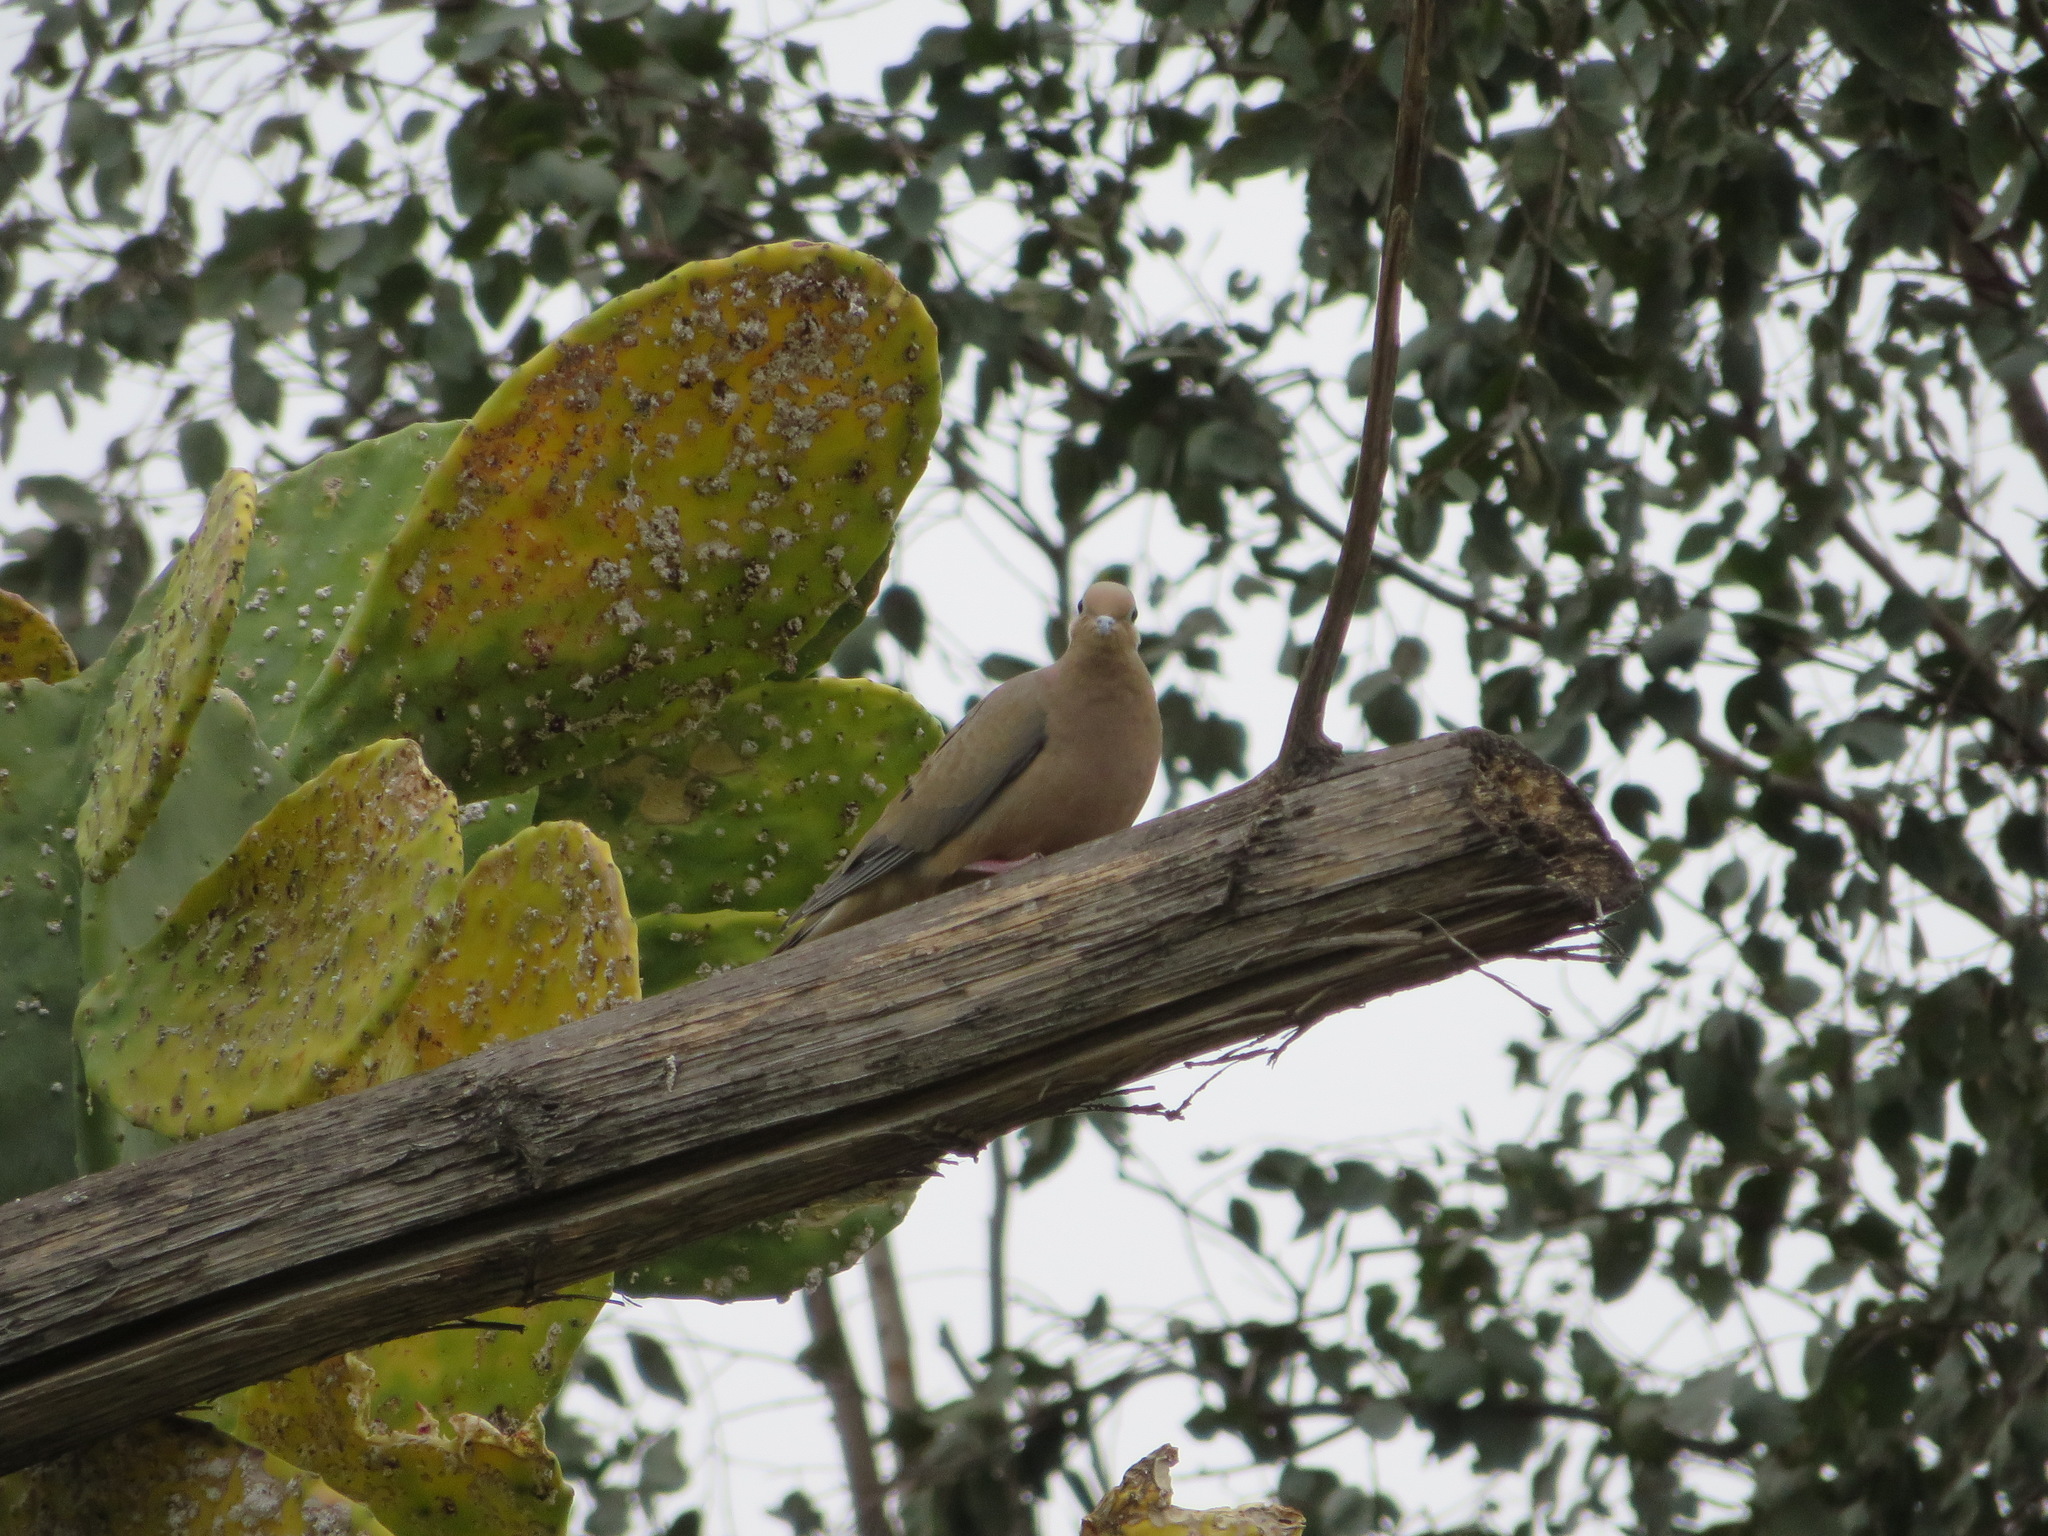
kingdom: Animalia
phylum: Chordata
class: Aves
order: Columbiformes
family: Columbidae
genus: Zenaida
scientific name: Zenaida macroura
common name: Mourning dove
